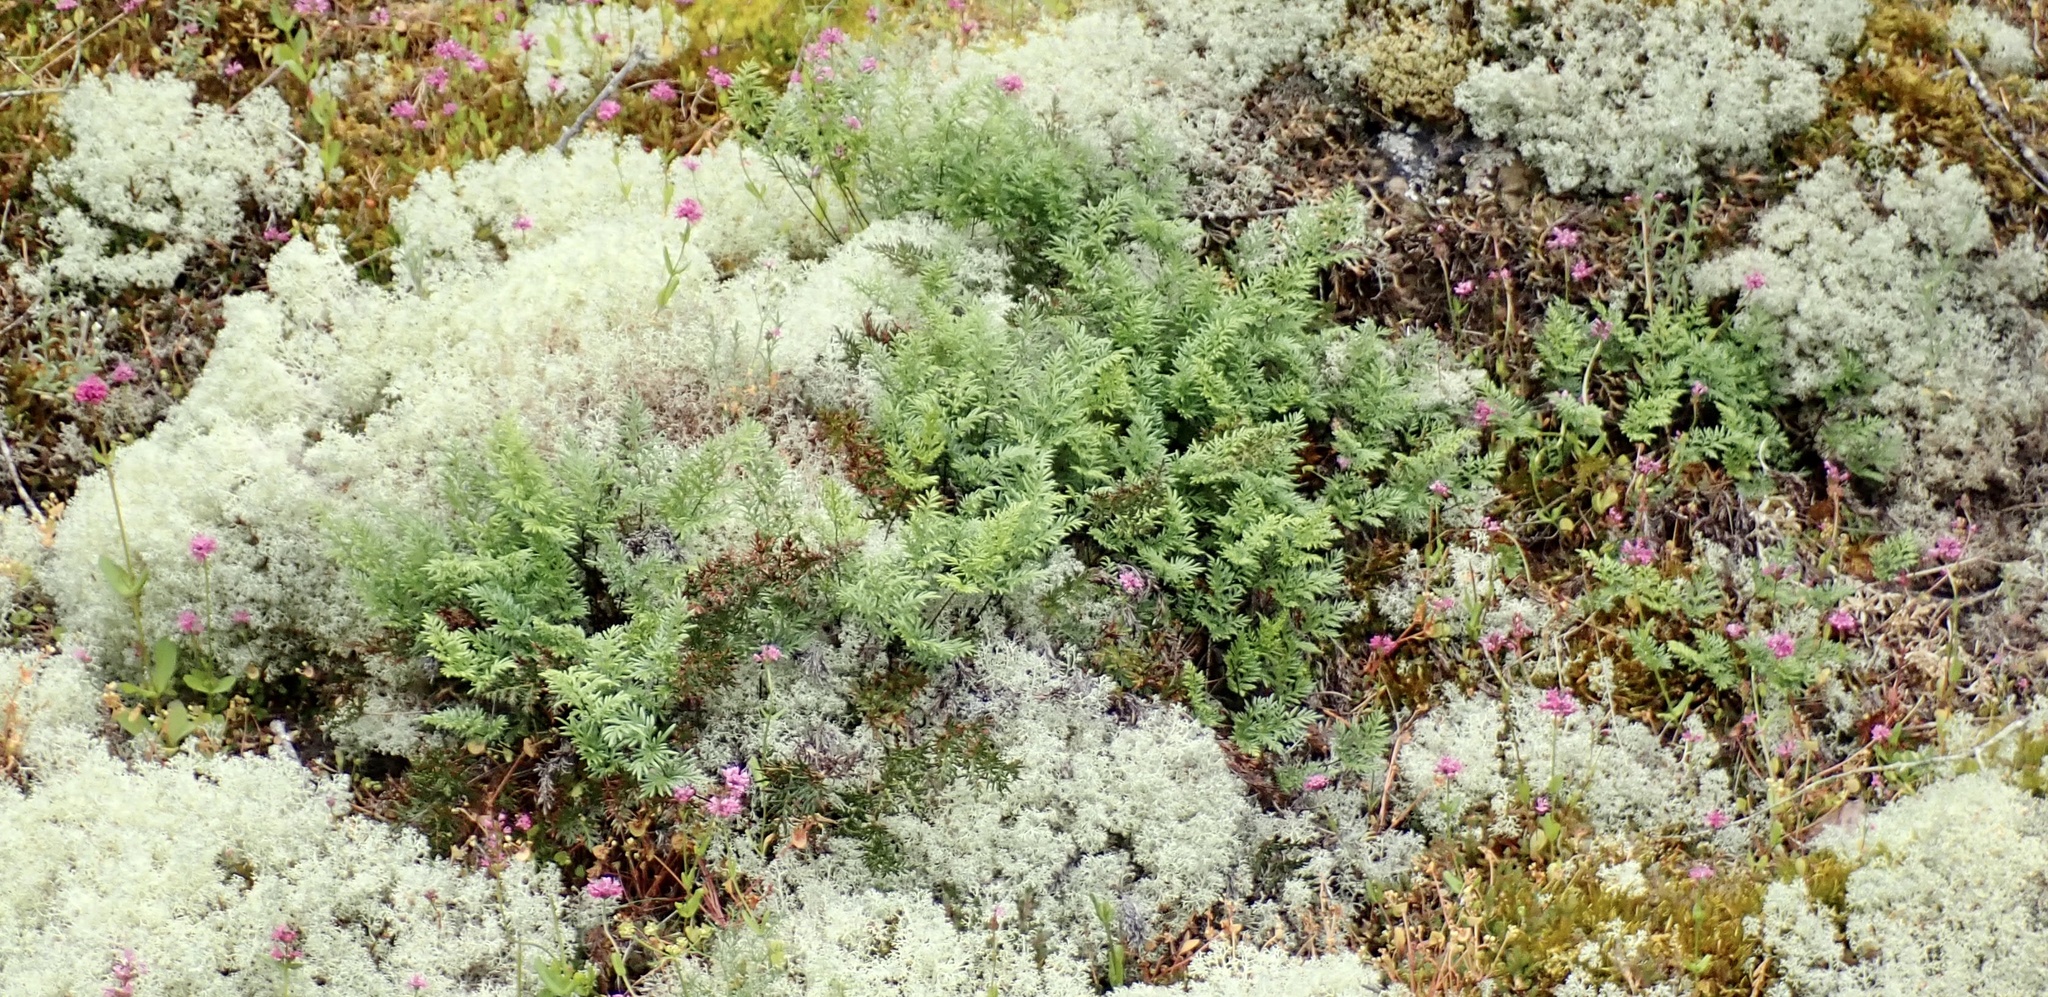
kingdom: Plantae
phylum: Tracheophyta
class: Polypodiopsida
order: Polypodiales
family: Pteridaceae
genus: Aspidotis
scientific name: Aspidotis densa
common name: Indian's dream
